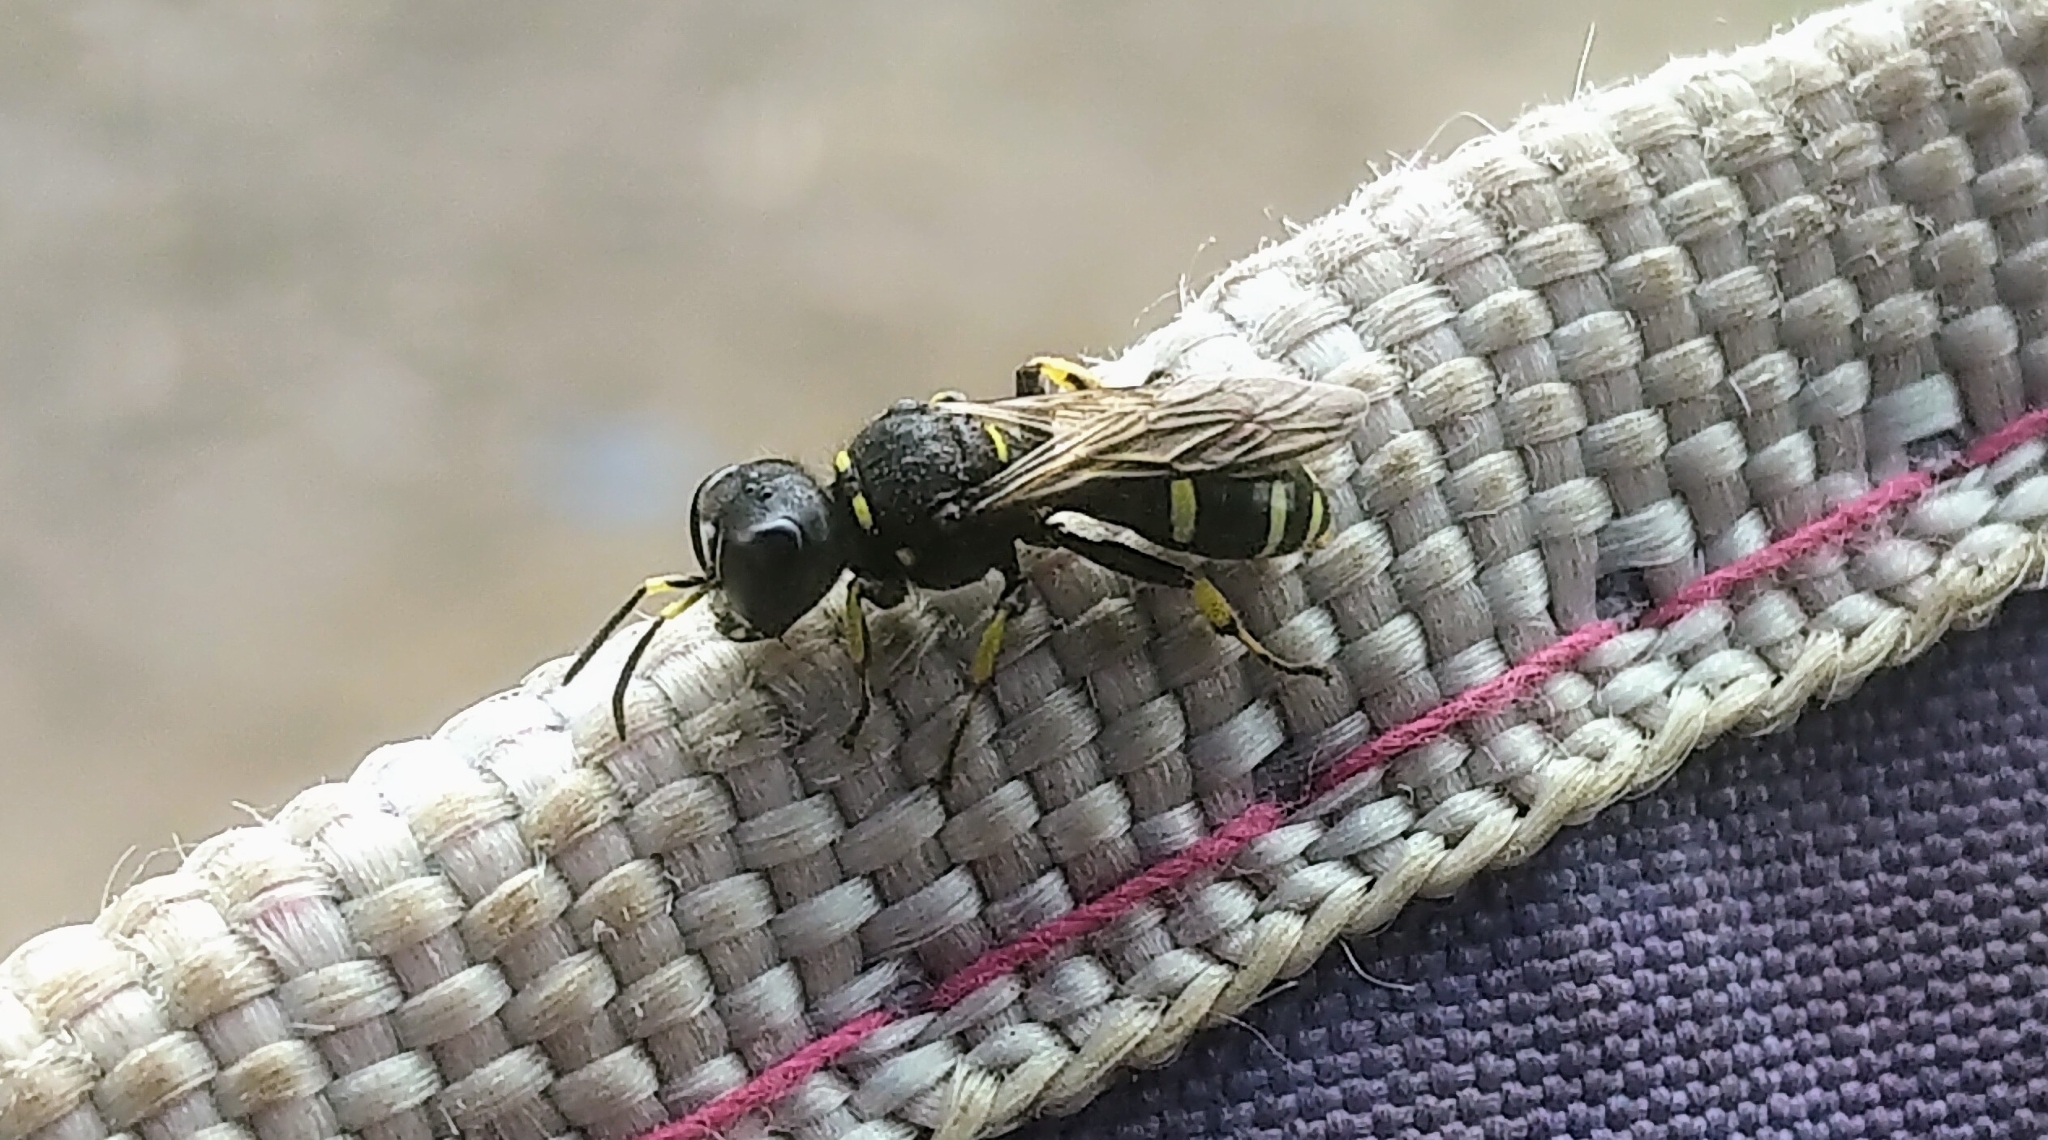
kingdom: Animalia
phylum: Arthropoda
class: Insecta
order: Hymenoptera
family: Crabronidae
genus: Ectemnius
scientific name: Ectemnius continuus
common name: Common ectemnius
